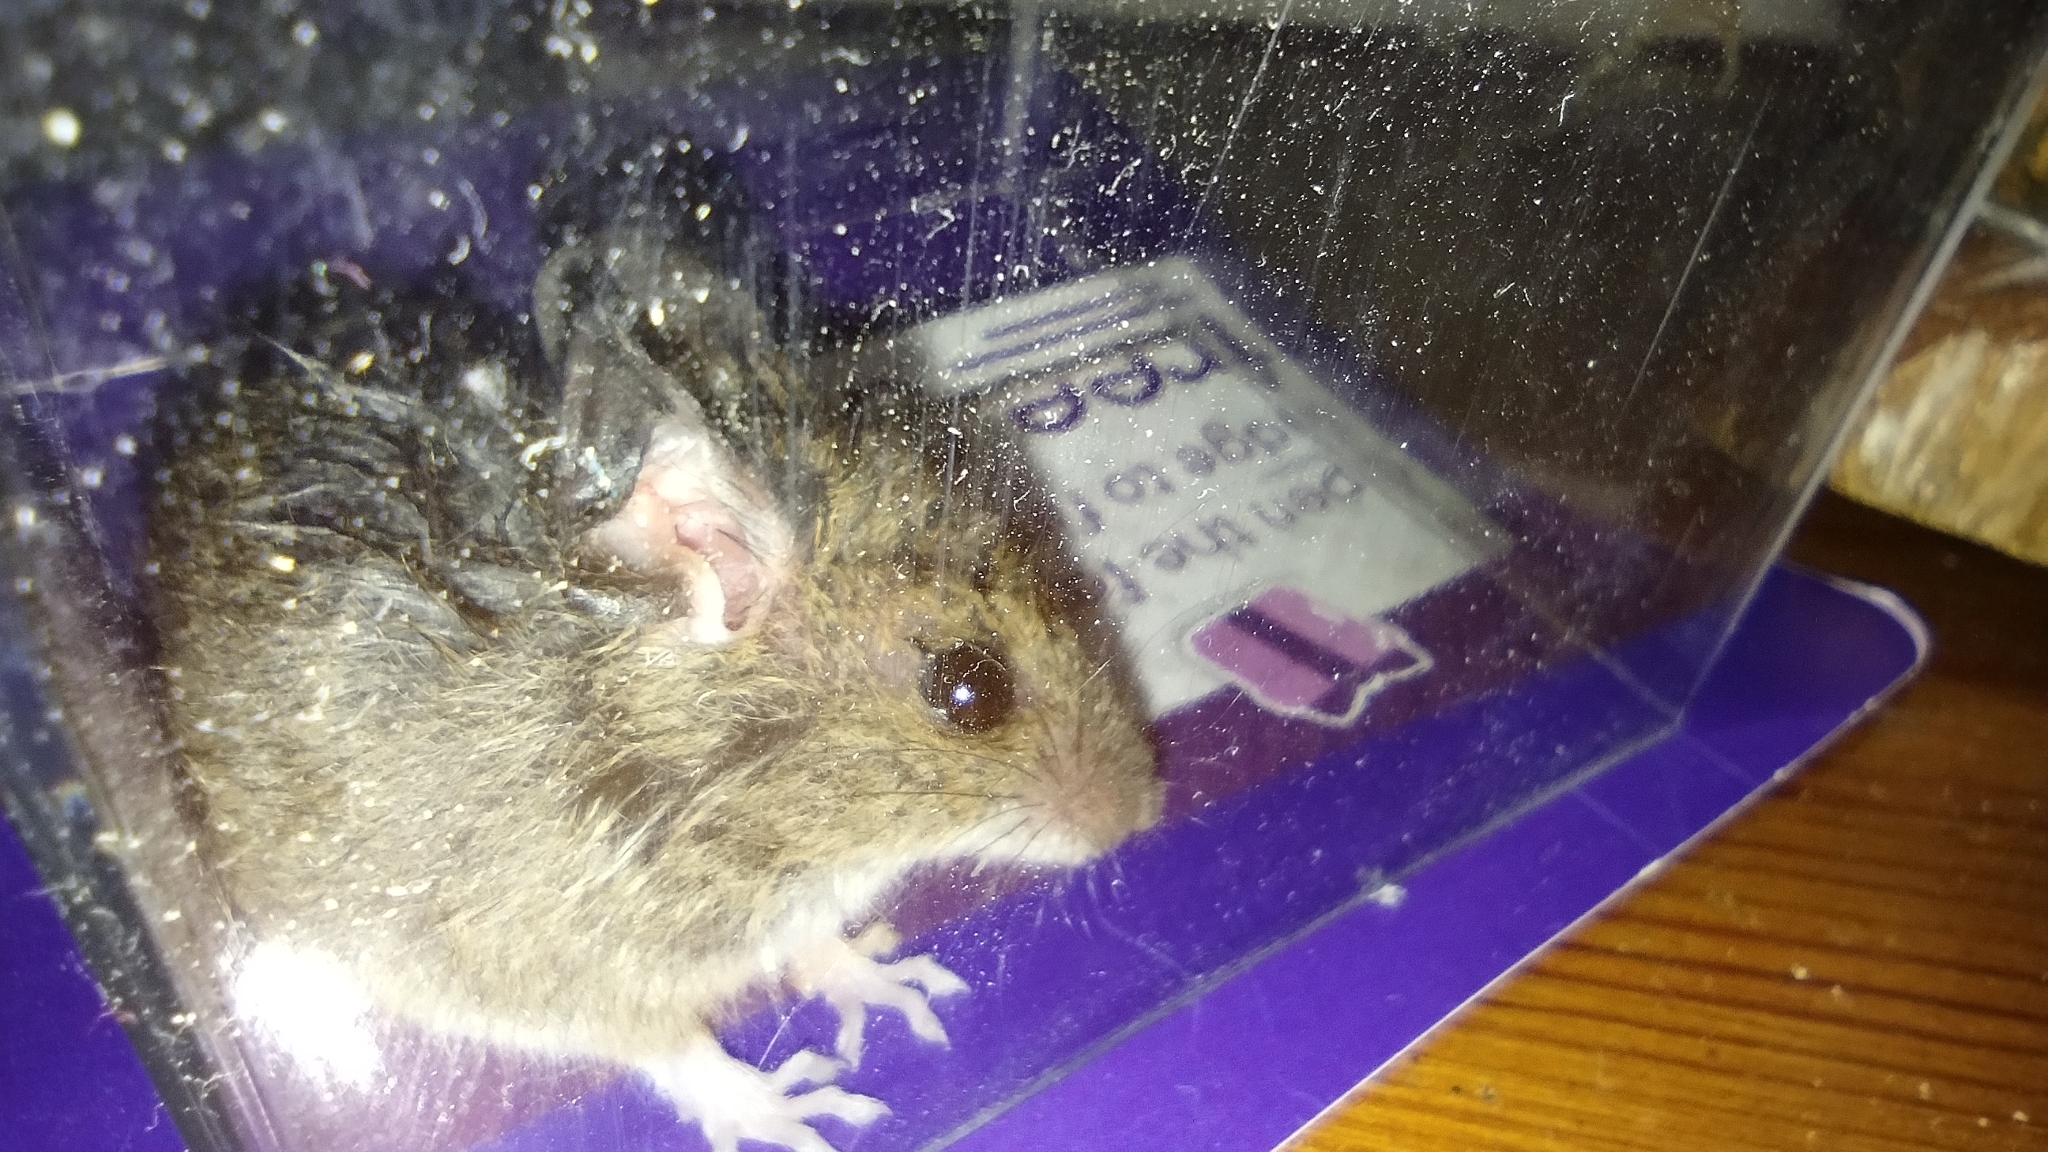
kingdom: Animalia
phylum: Chordata
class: Mammalia
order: Rodentia
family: Muridae
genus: Apodemus
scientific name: Apodemus sylvaticus
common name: Wood mouse
